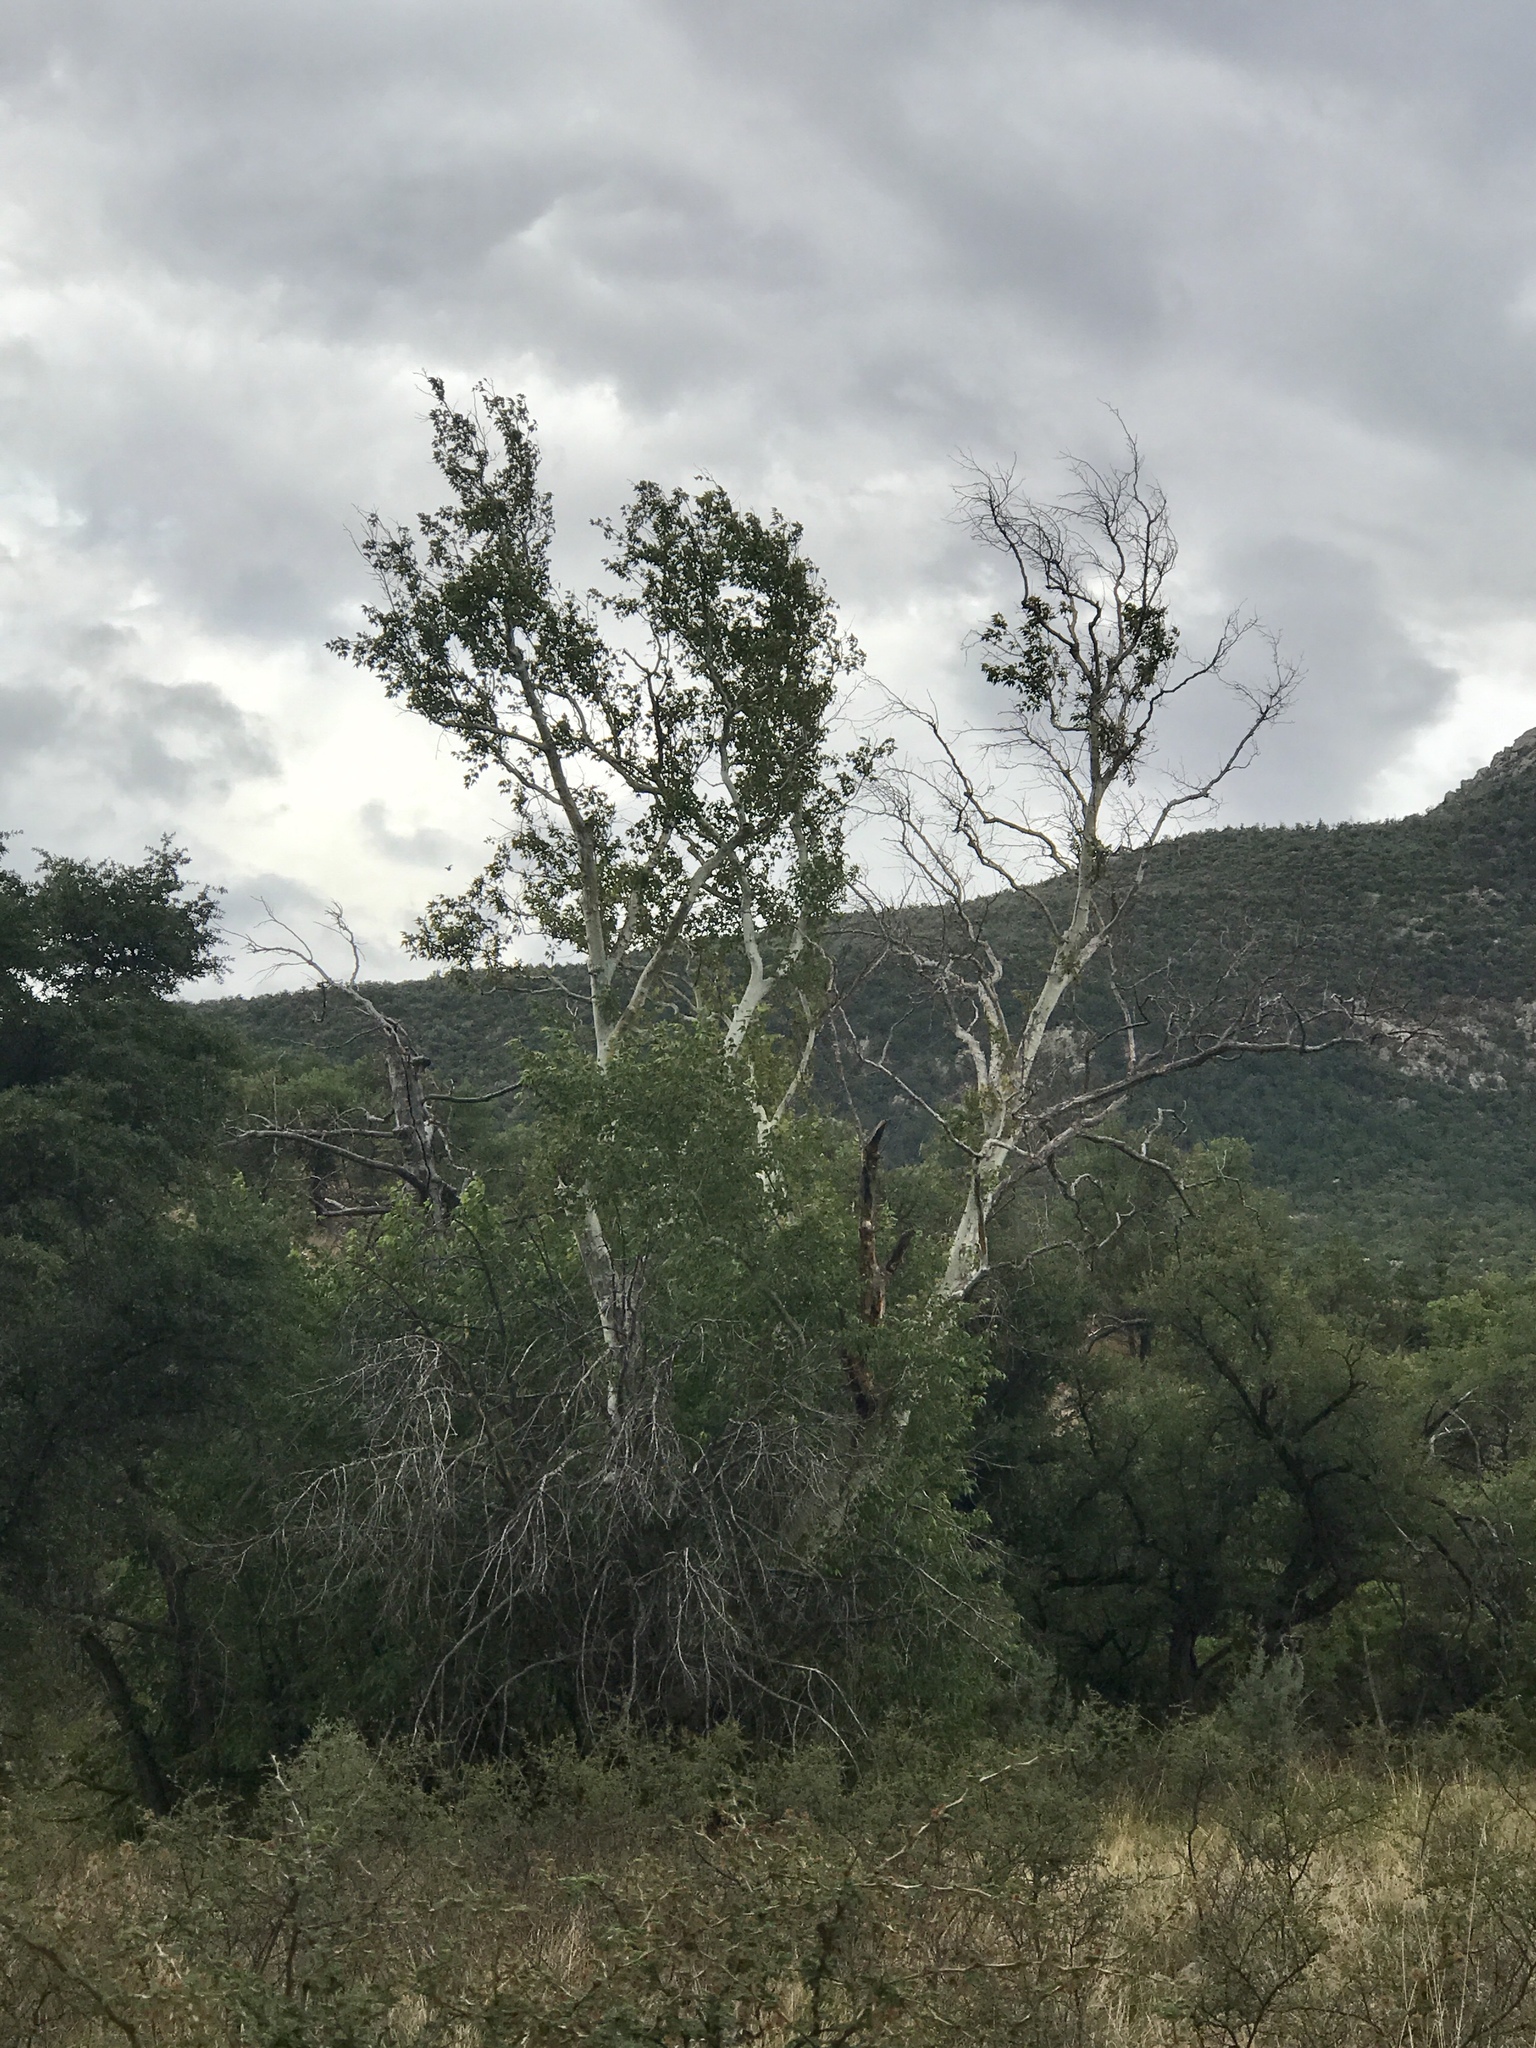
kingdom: Plantae
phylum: Tracheophyta
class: Magnoliopsida
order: Proteales
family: Platanaceae
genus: Platanus
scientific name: Platanus wrightii
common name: Arizona sycamore
